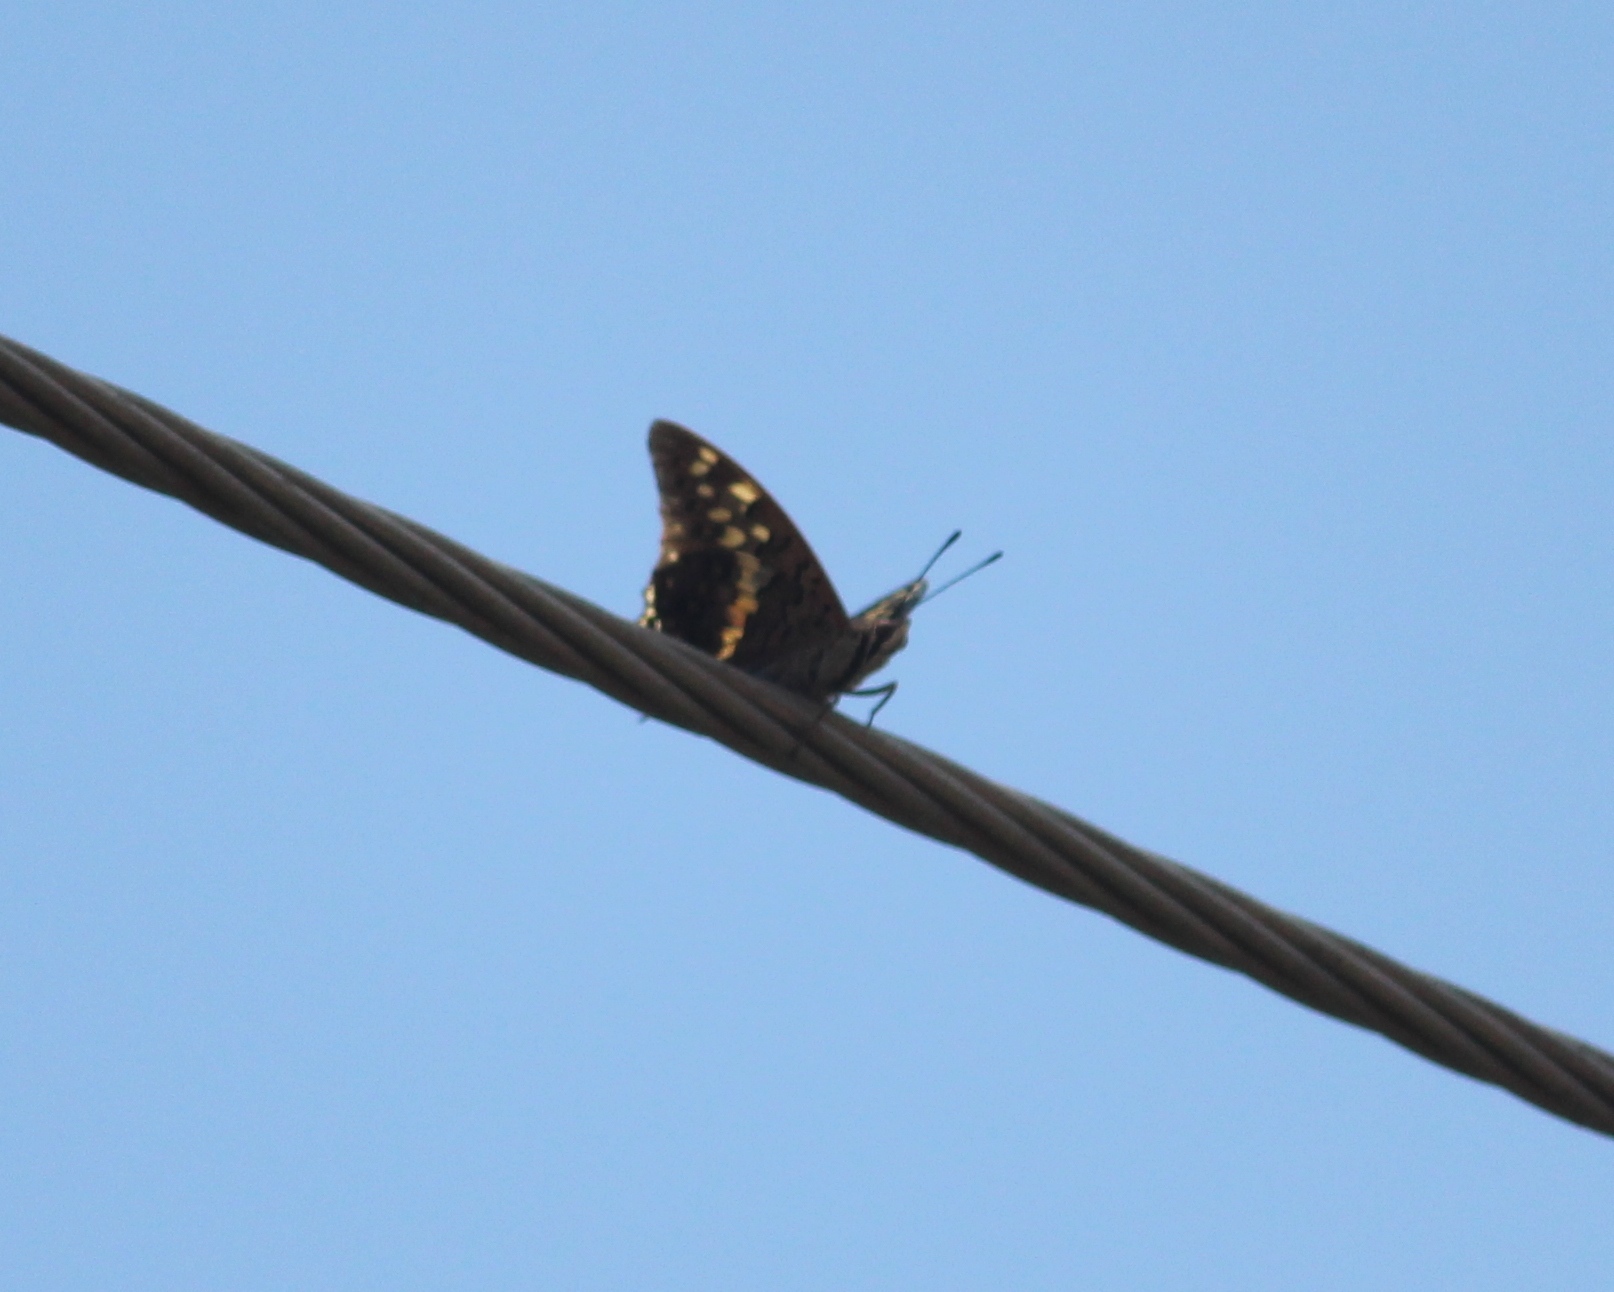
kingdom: Animalia
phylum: Arthropoda
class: Insecta
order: Lepidoptera
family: Nymphalidae
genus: Charaxes
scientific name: Charaxes solon
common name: Black rajah
